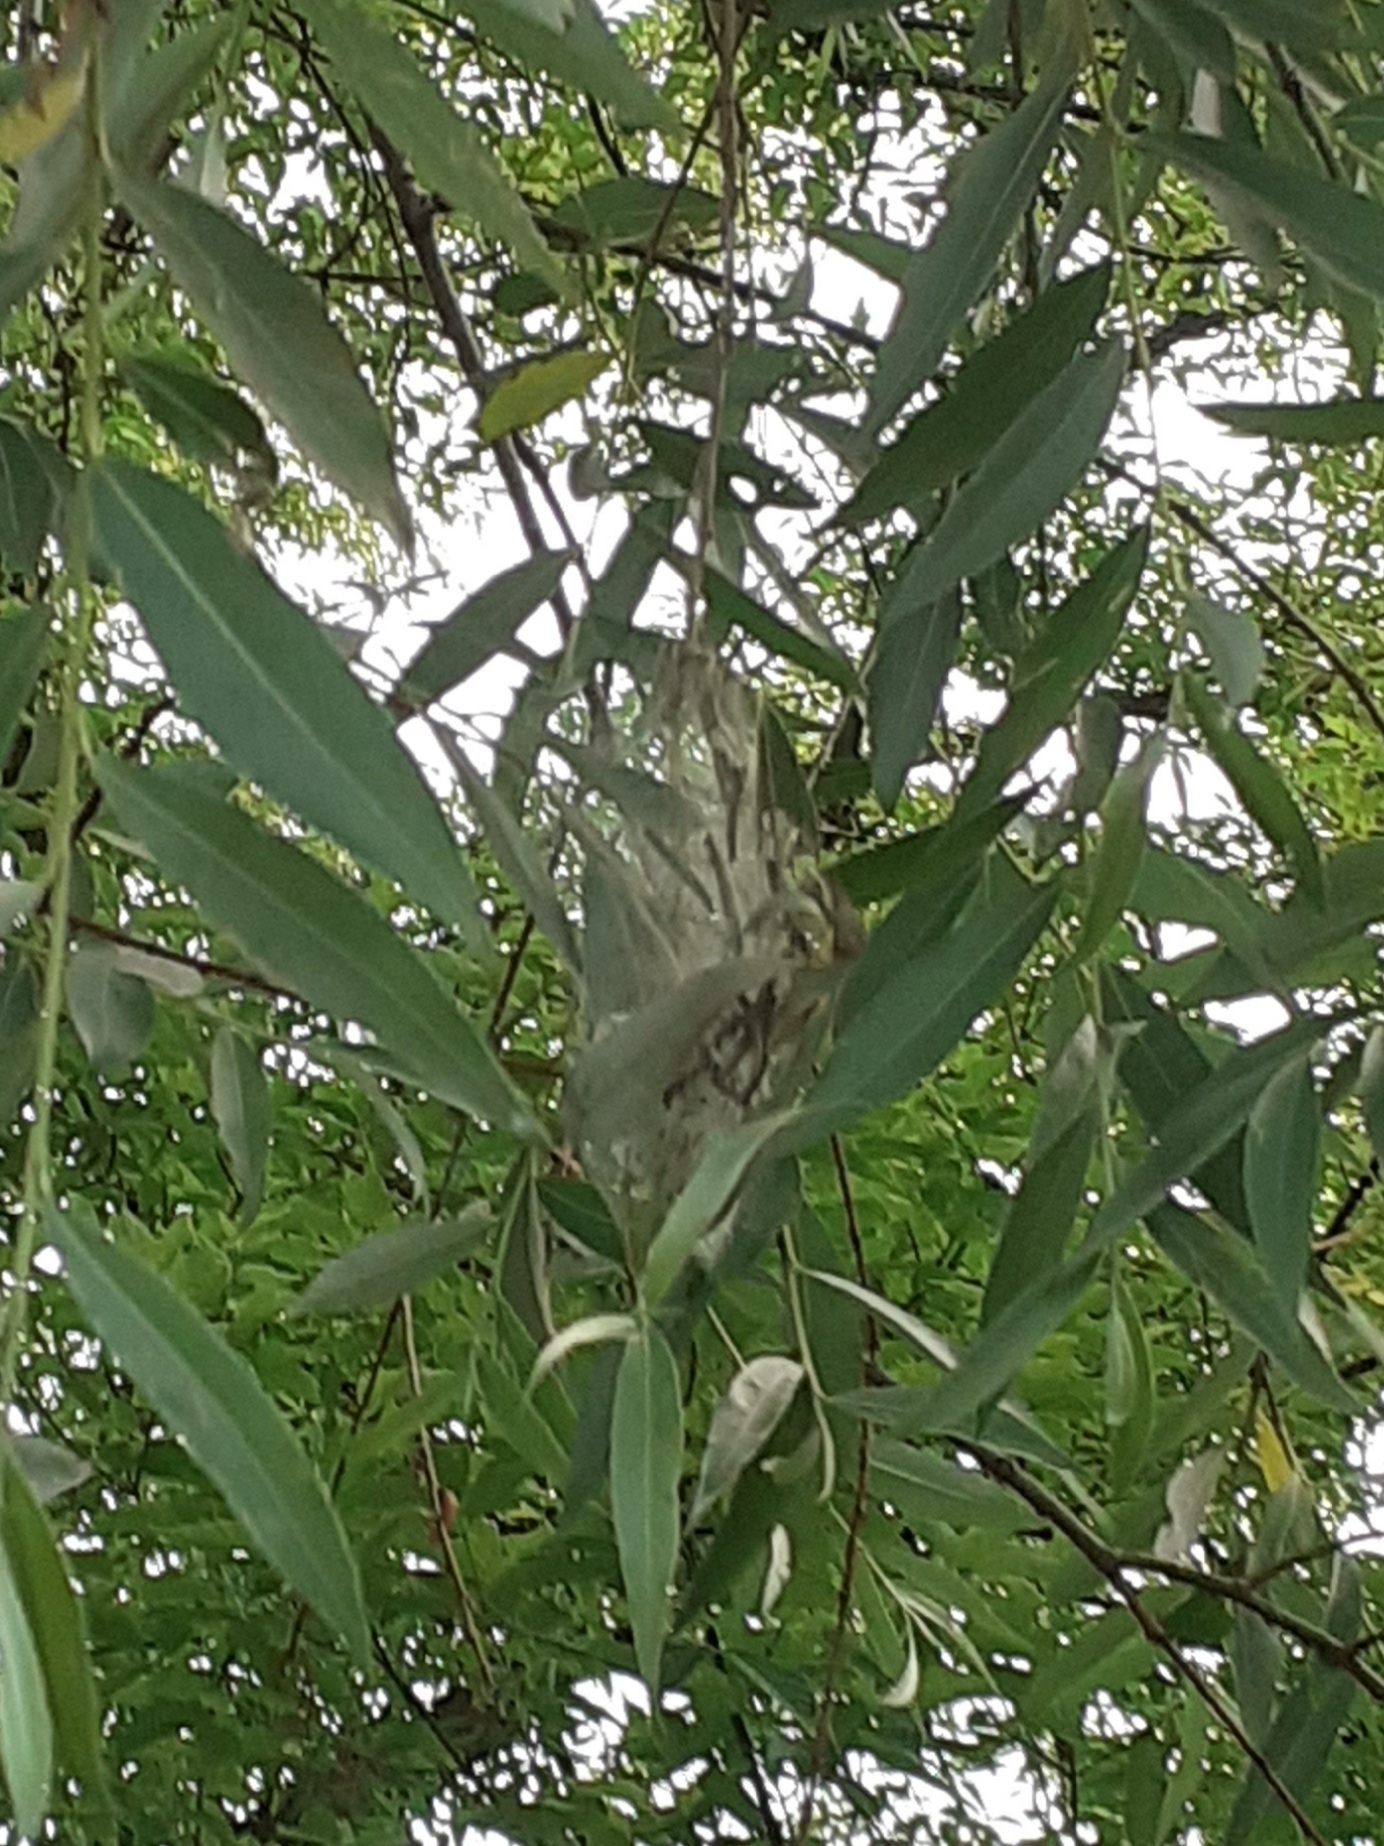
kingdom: Animalia
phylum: Arthropoda
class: Insecta
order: Lepidoptera
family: Yponomeutidae
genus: Yponomeuta
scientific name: Yponomeuta padella
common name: Orchard ermine
